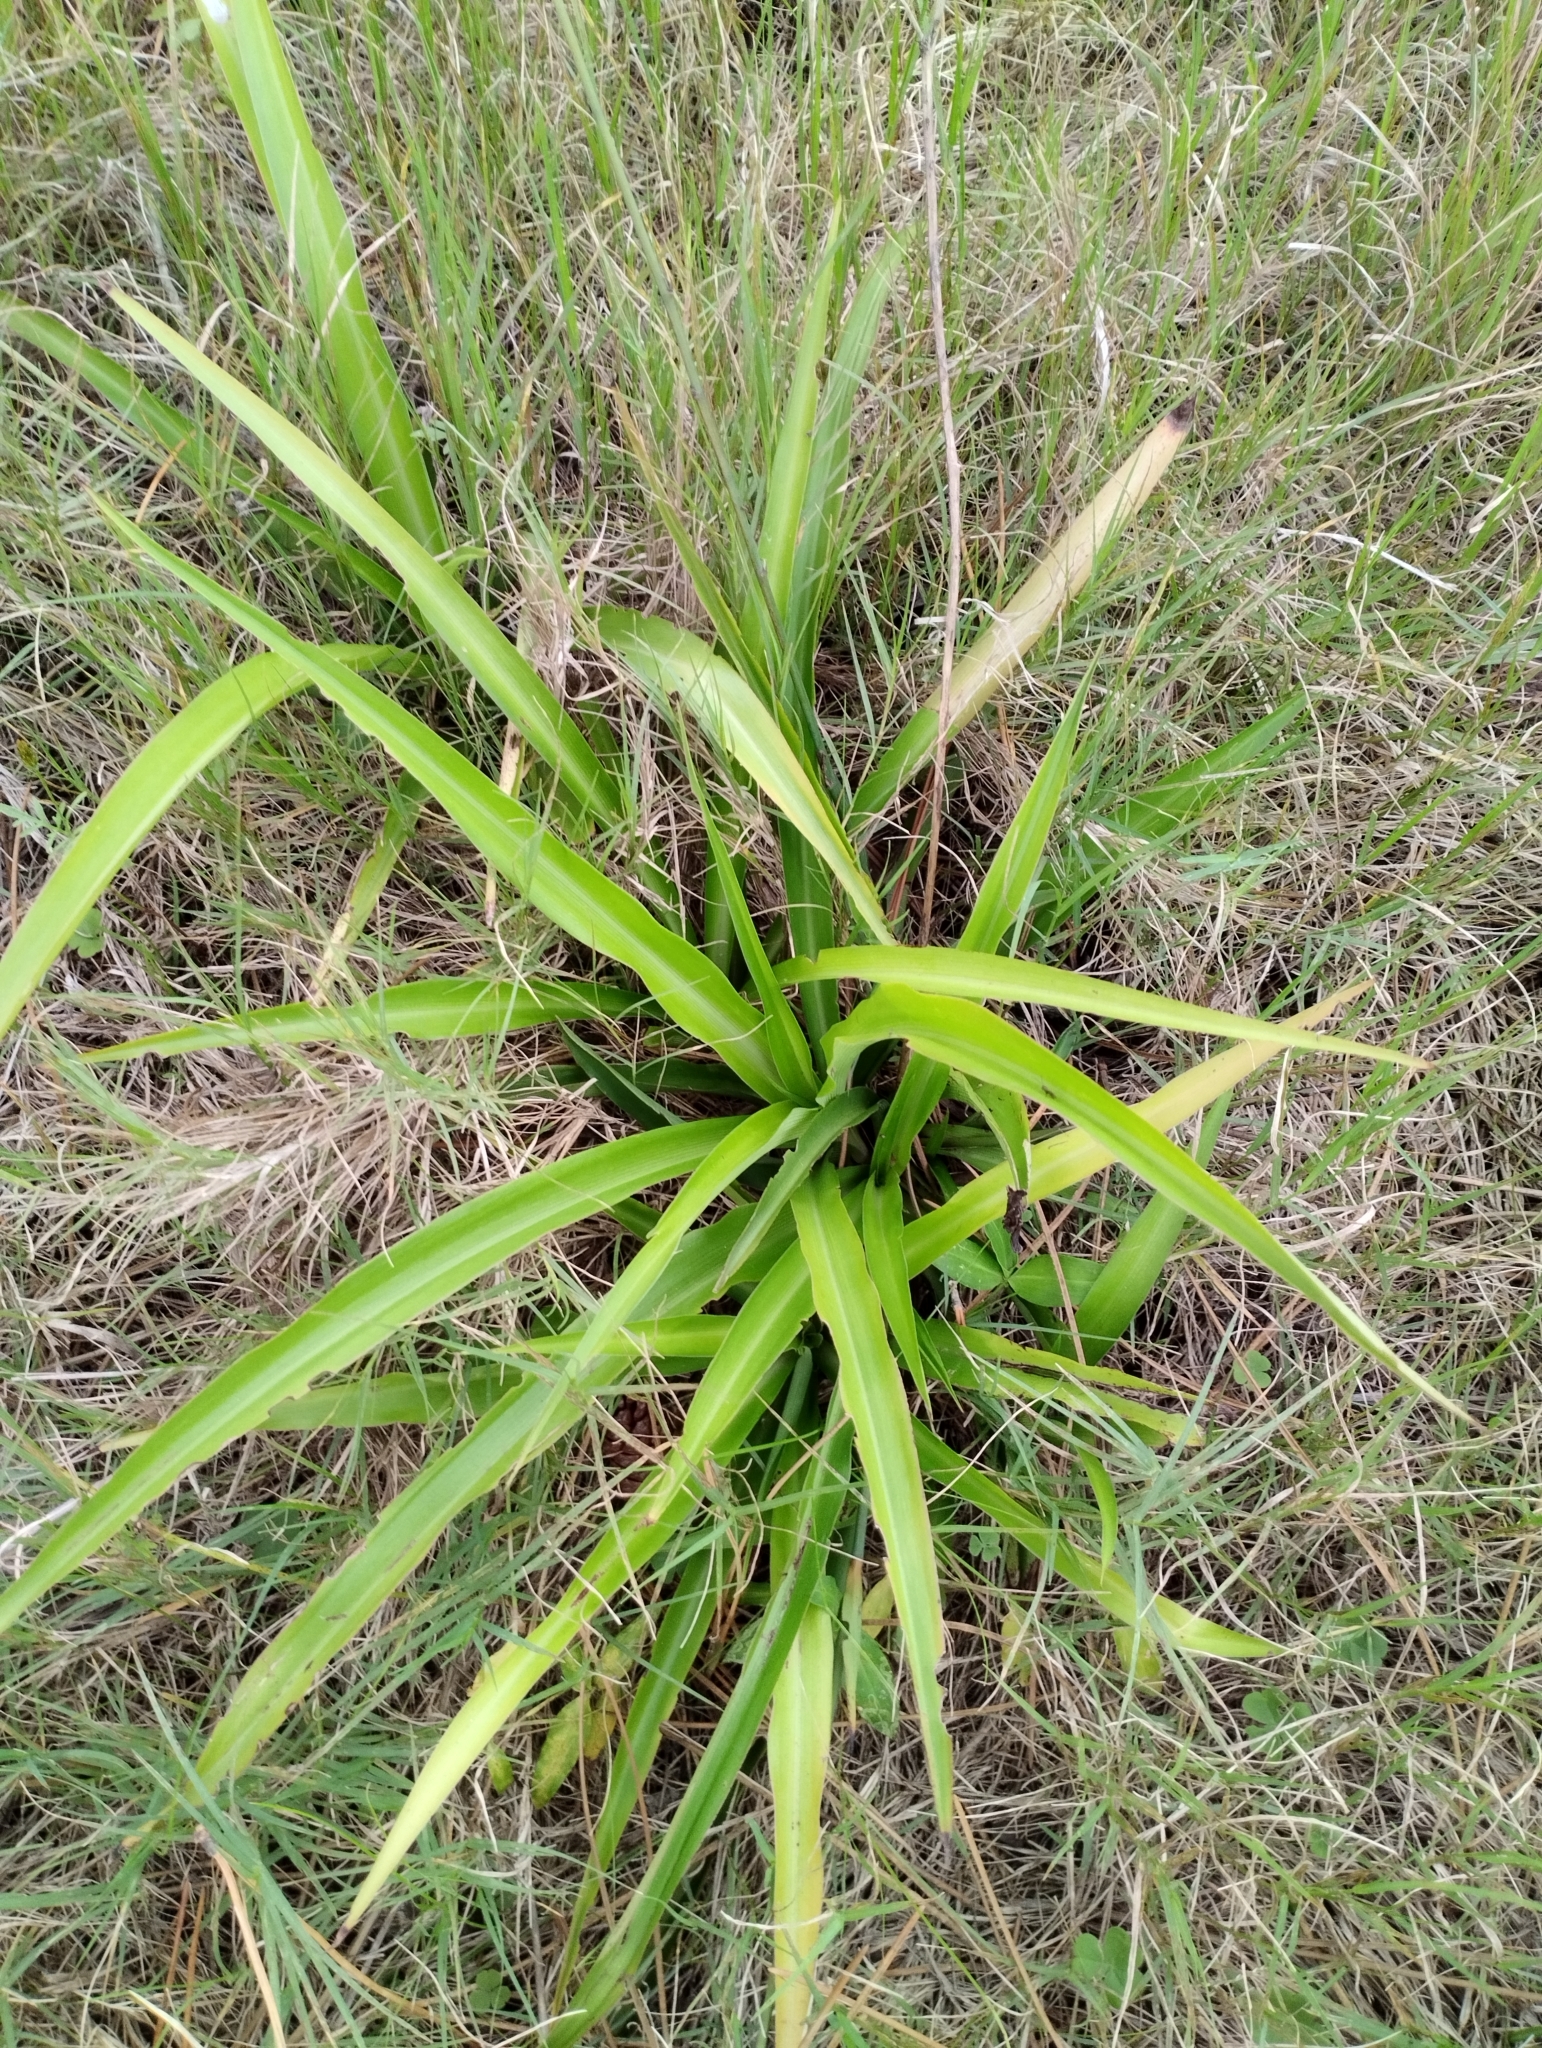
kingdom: Plantae
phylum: Tracheophyta
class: Liliopsida
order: Asparagales
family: Asparagaceae
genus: Chlorophytum
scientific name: Chlorophytum comosum
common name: Spider plant
